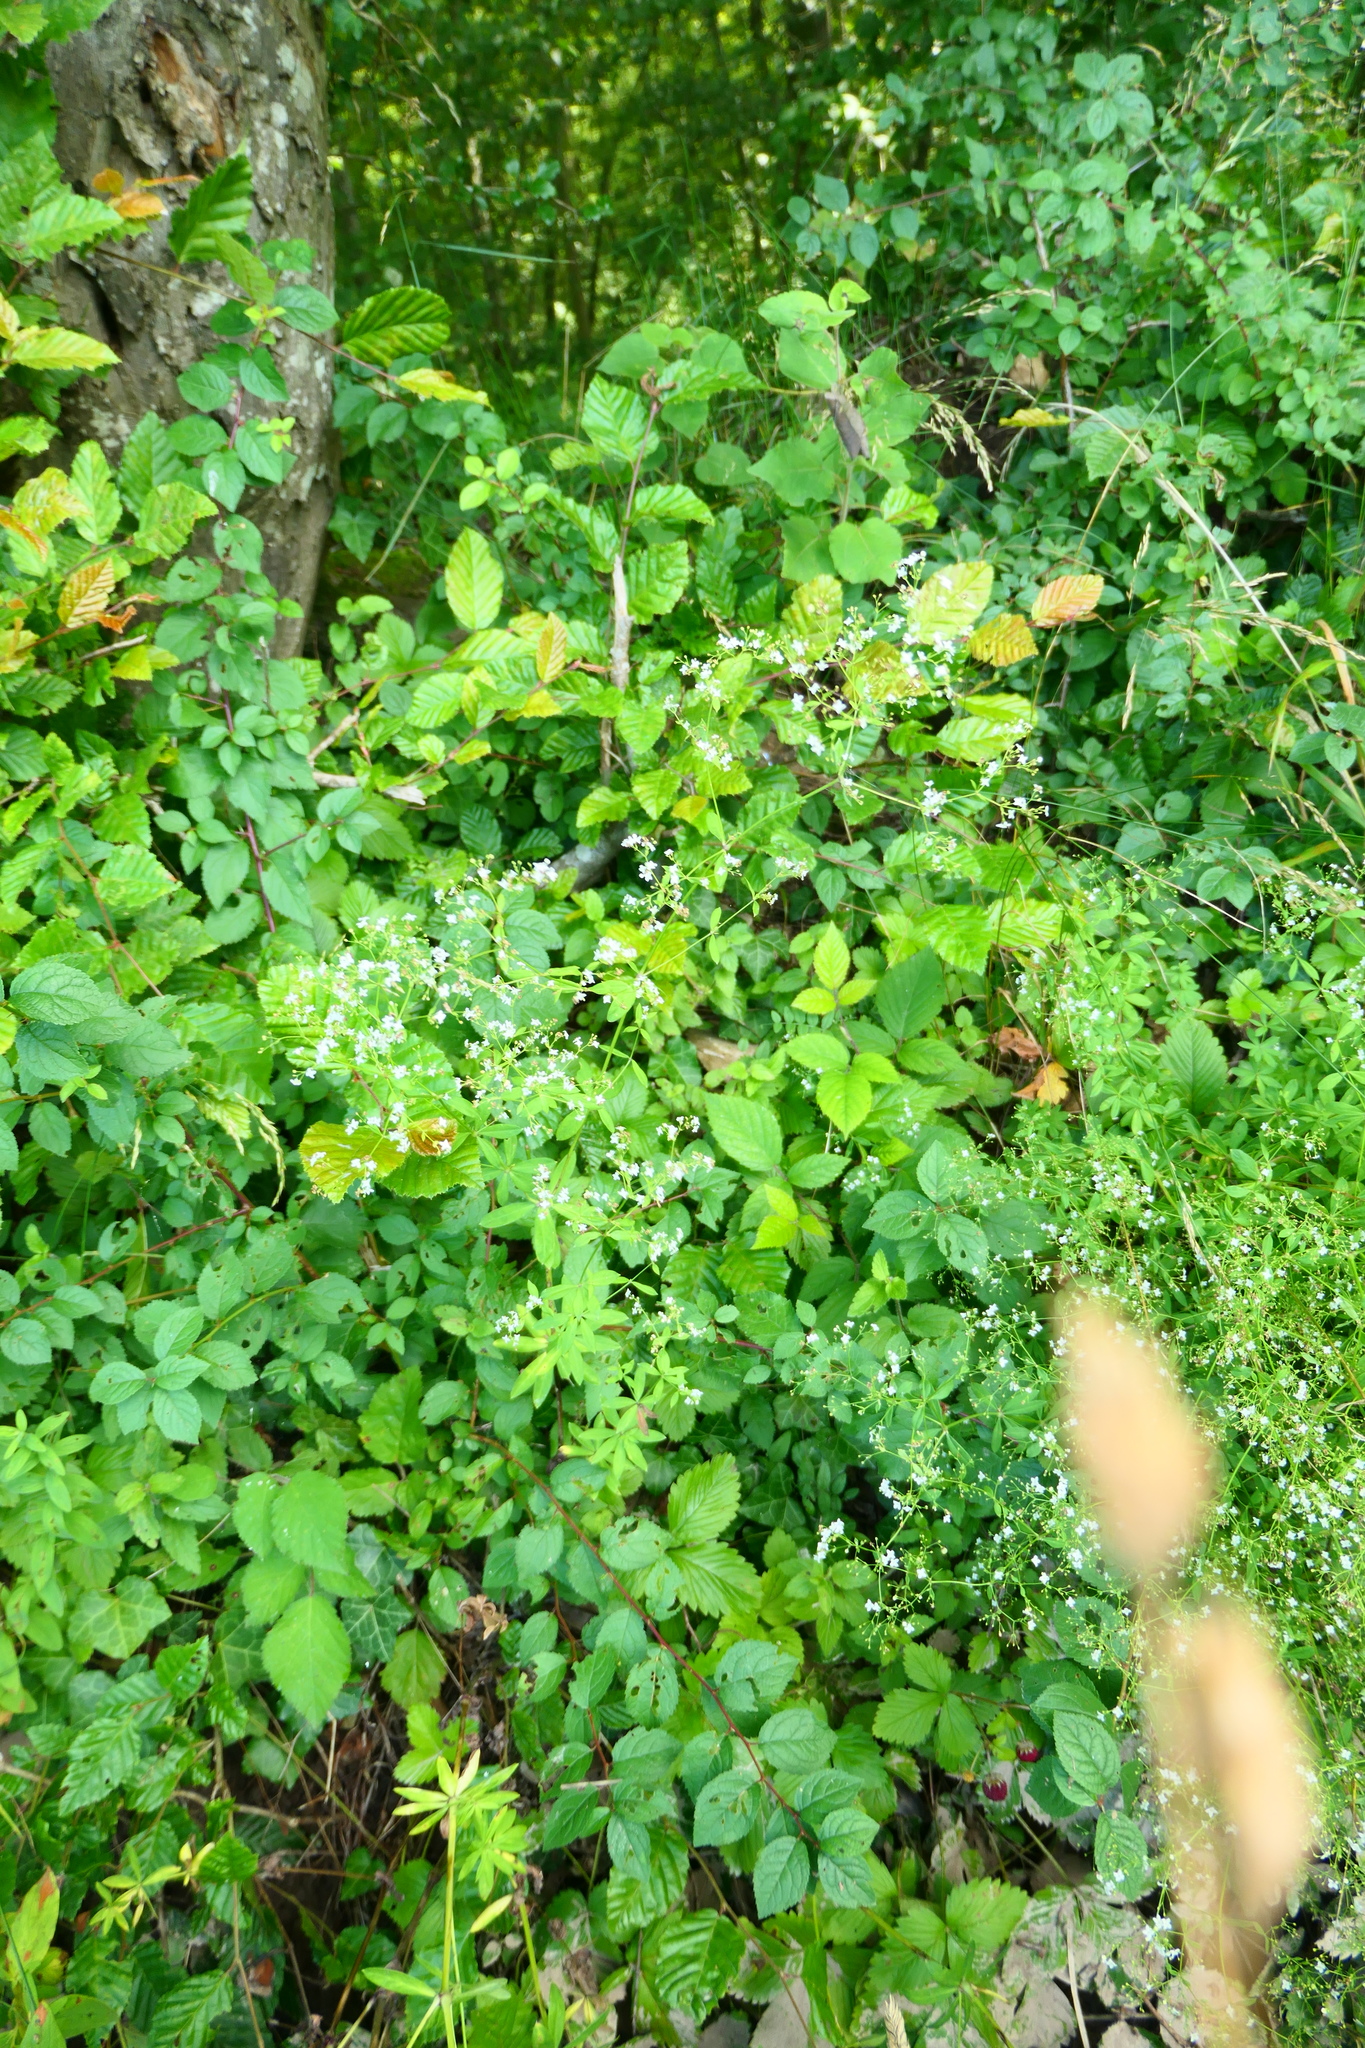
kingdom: Plantae
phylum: Tracheophyta
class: Magnoliopsida
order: Gentianales
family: Rubiaceae
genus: Galium
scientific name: Galium sylvaticum
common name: Wood bedstraw
